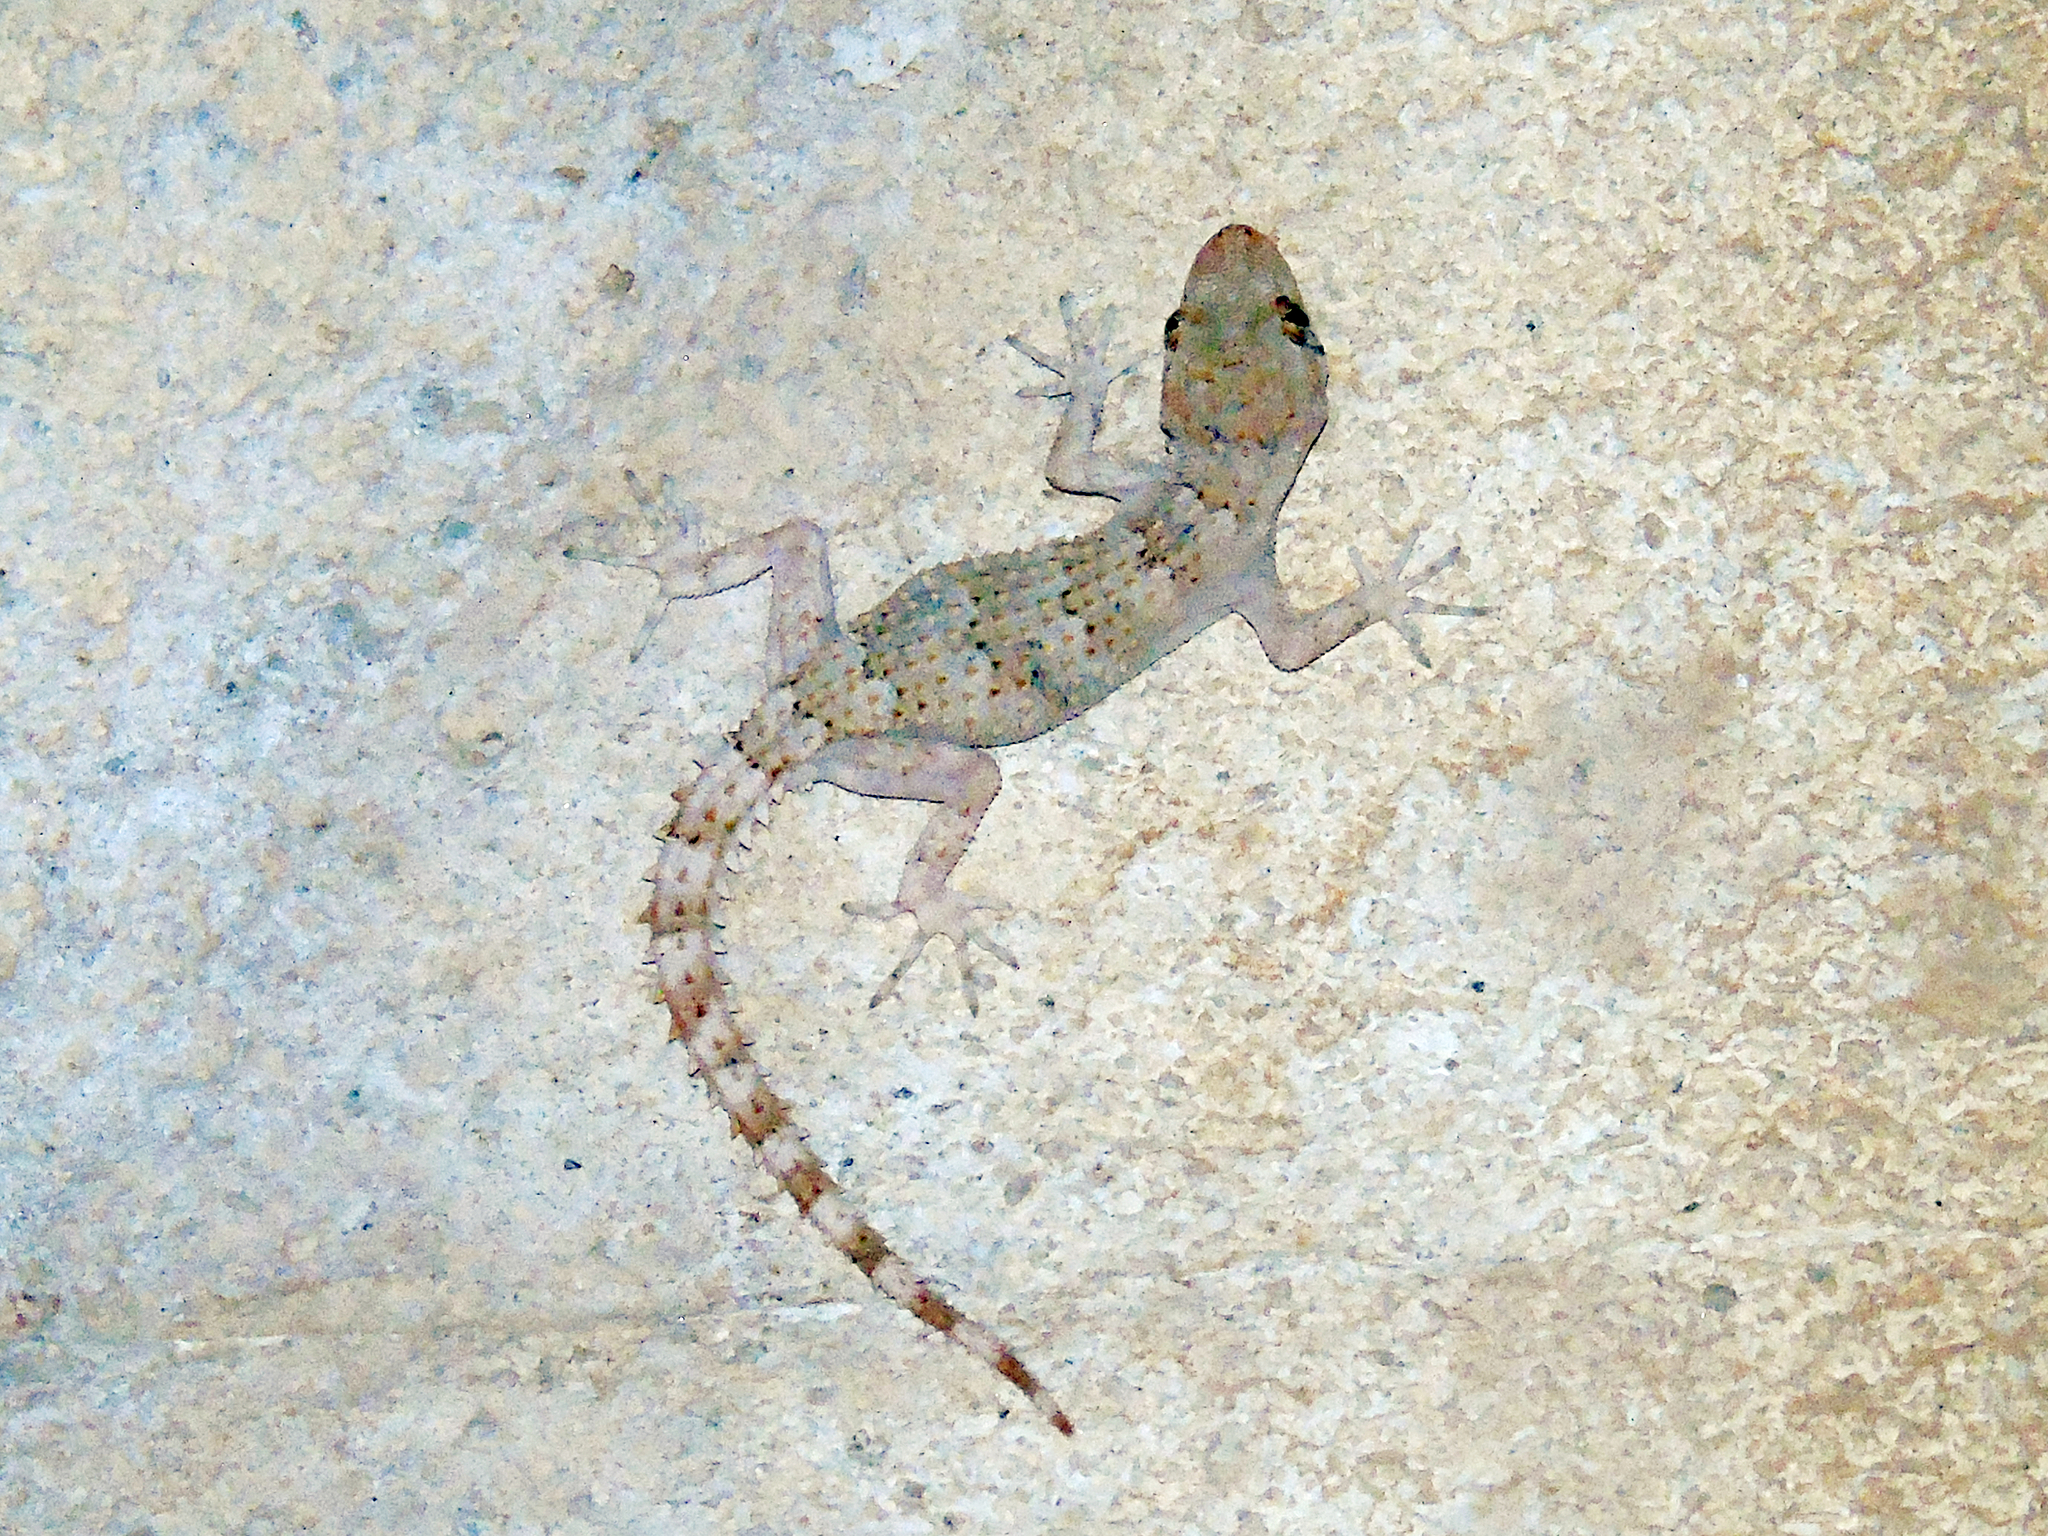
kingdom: Animalia
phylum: Chordata
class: Squamata
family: Gekkonidae
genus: Mediodactylus
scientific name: Mediodactylus heterocercus
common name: Asia minor thin-toed gecko
